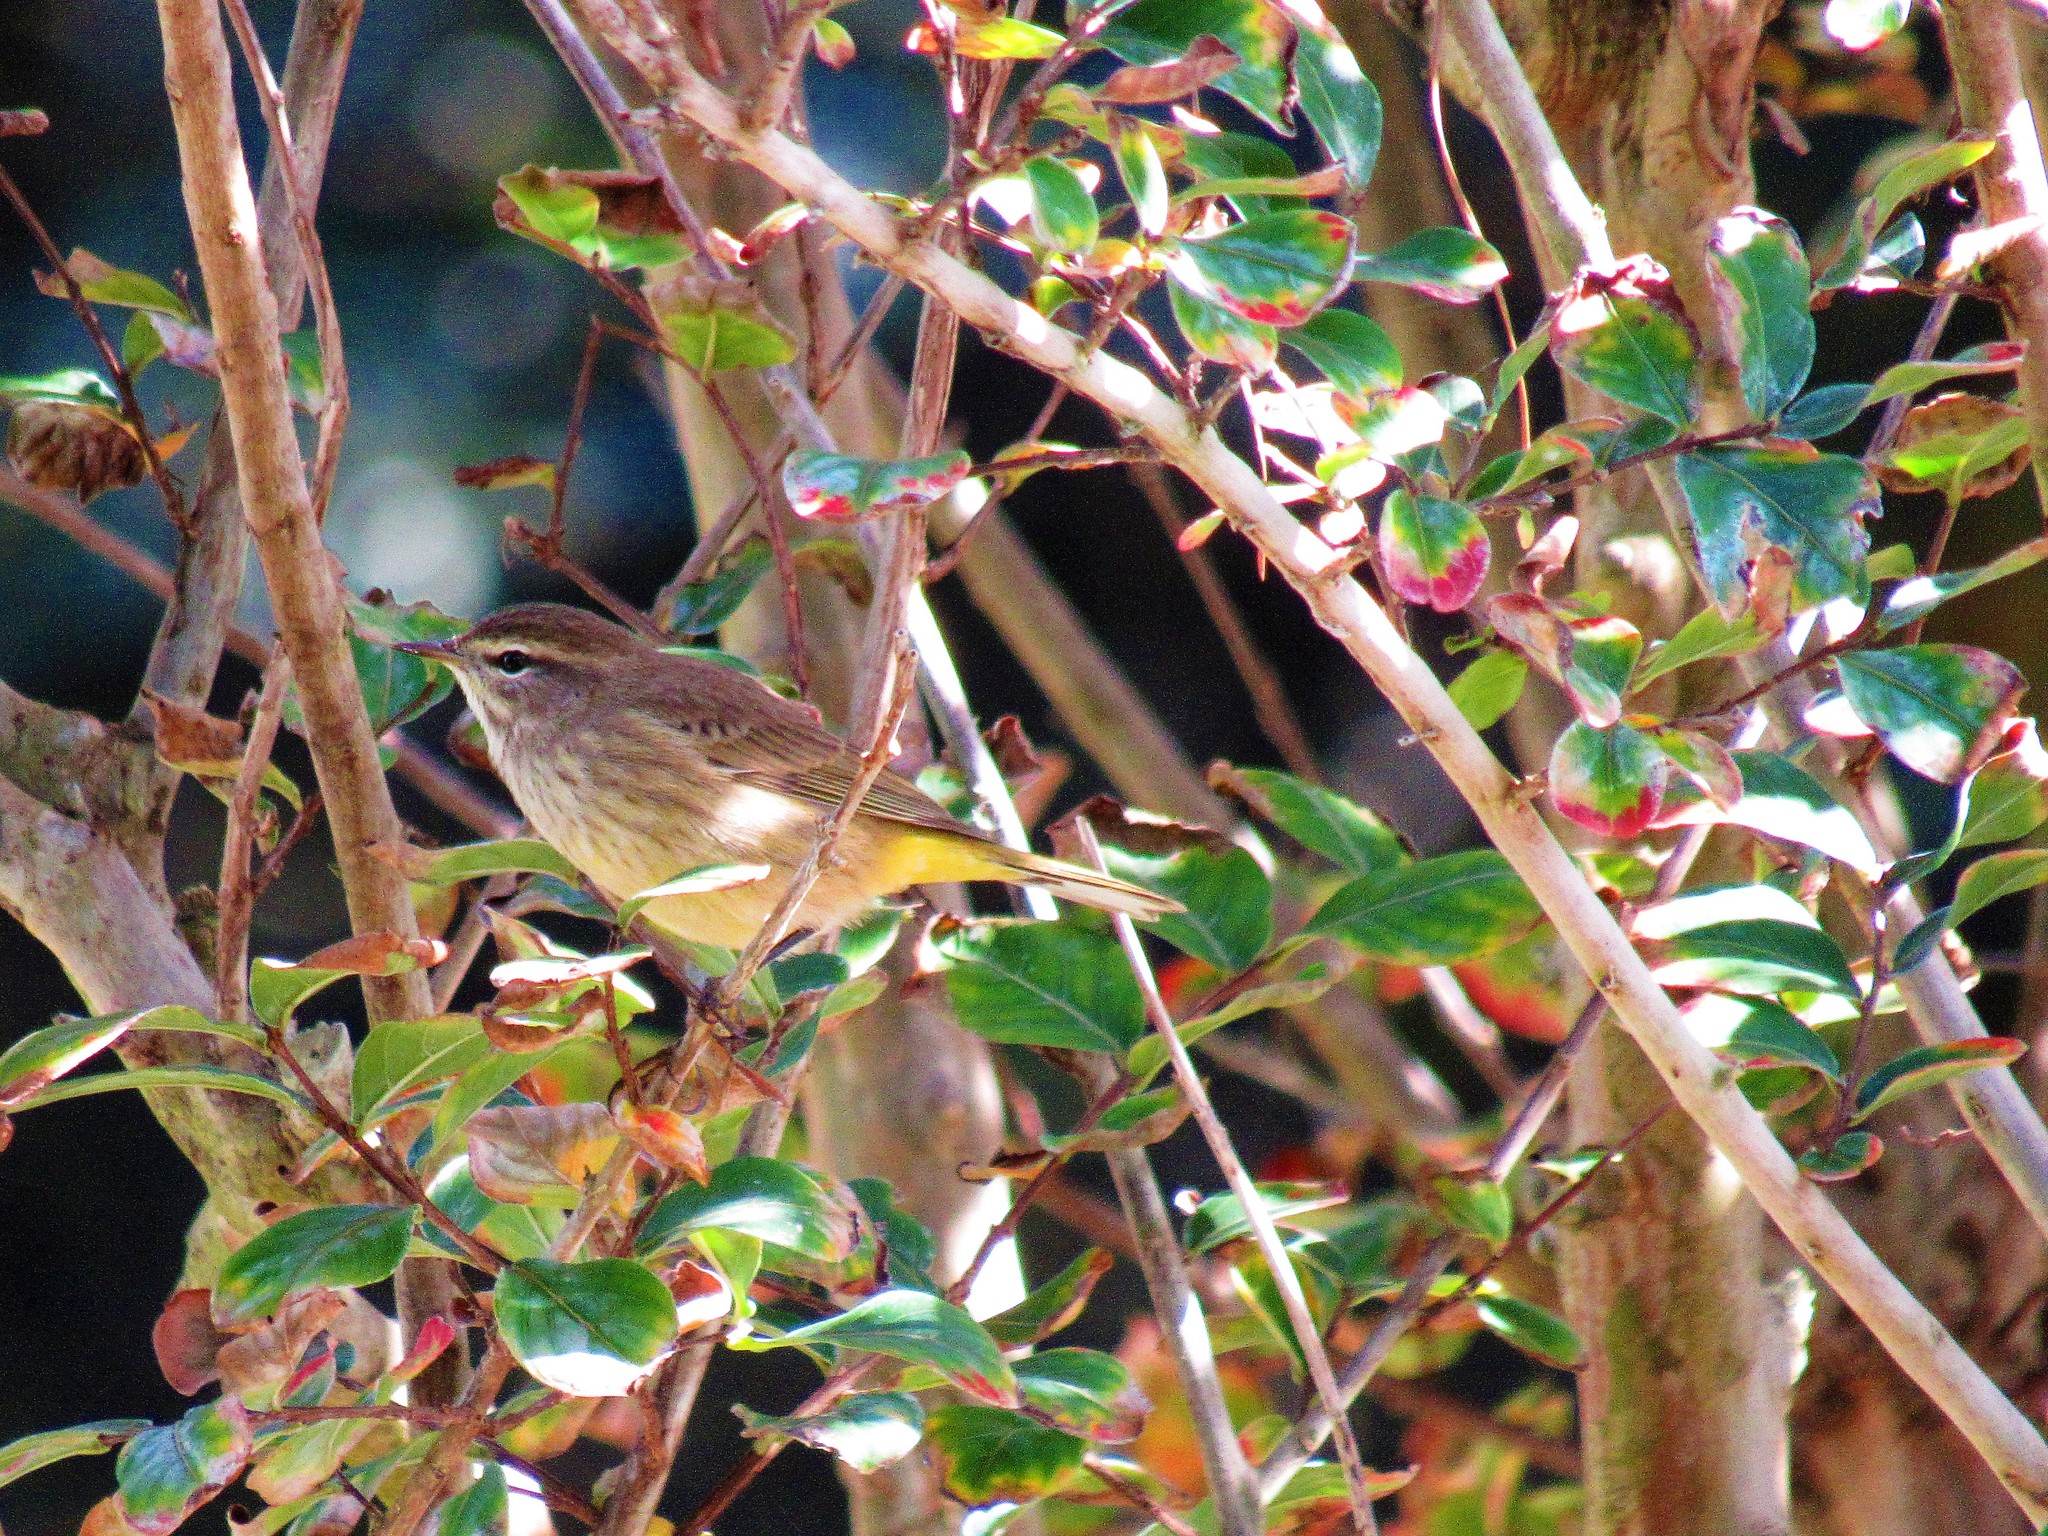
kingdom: Animalia
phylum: Chordata
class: Aves
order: Passeriformes
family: Parulidae
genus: Setophaga
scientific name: Setophaga palmarum
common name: Palm warbler
